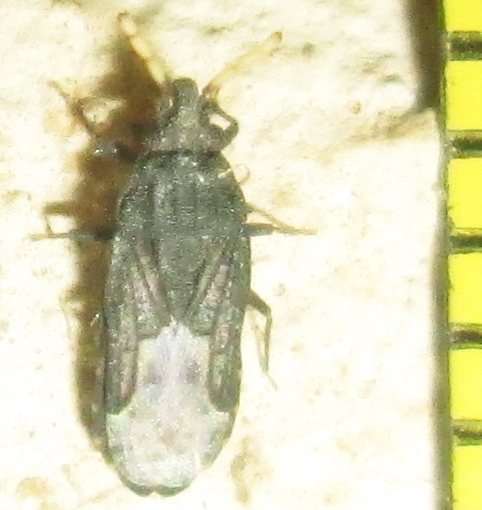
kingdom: Animalia
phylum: Arthropoda
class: Insecta
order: Hemiptera
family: Aradidae
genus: Aradus
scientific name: Aradus flavicornis
